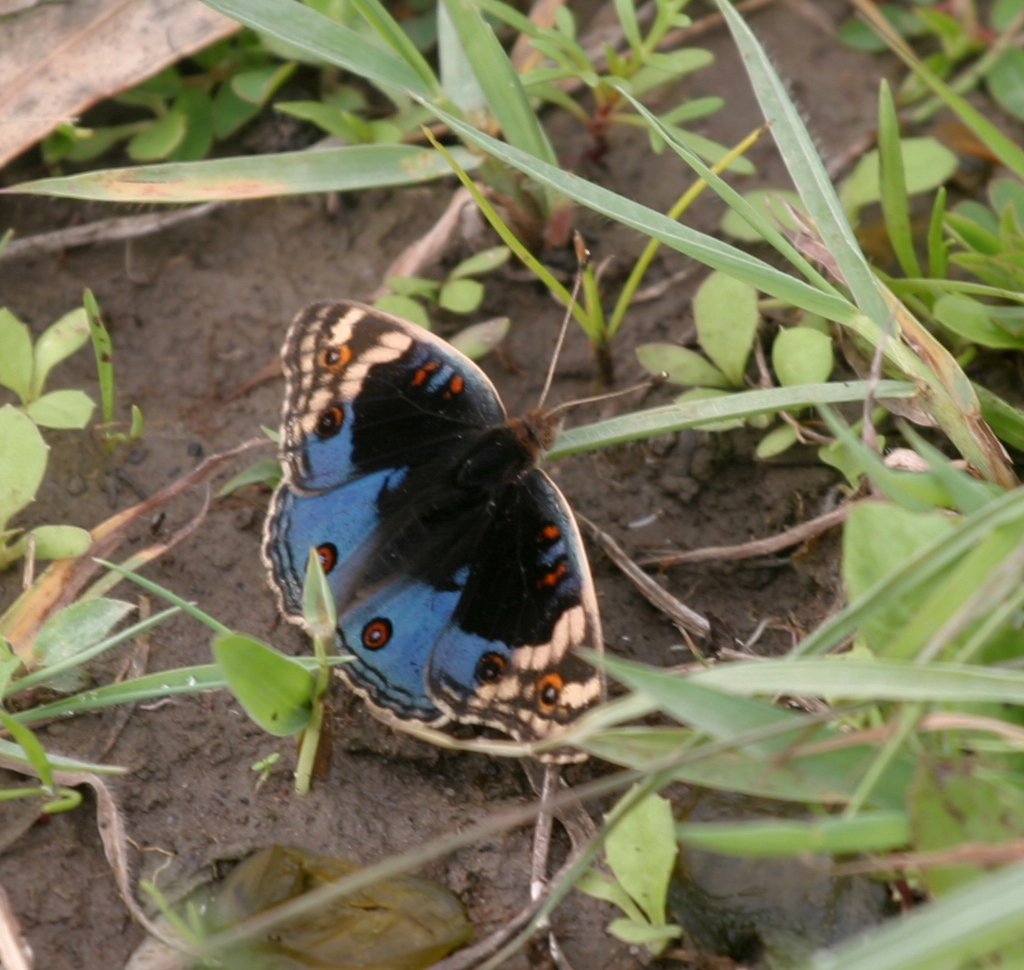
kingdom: Animalia
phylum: Arthropoda
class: Insecta
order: Lepidoptera
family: Nymphalidae
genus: Junonia
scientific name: Junonia orithya
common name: Blue pansy
